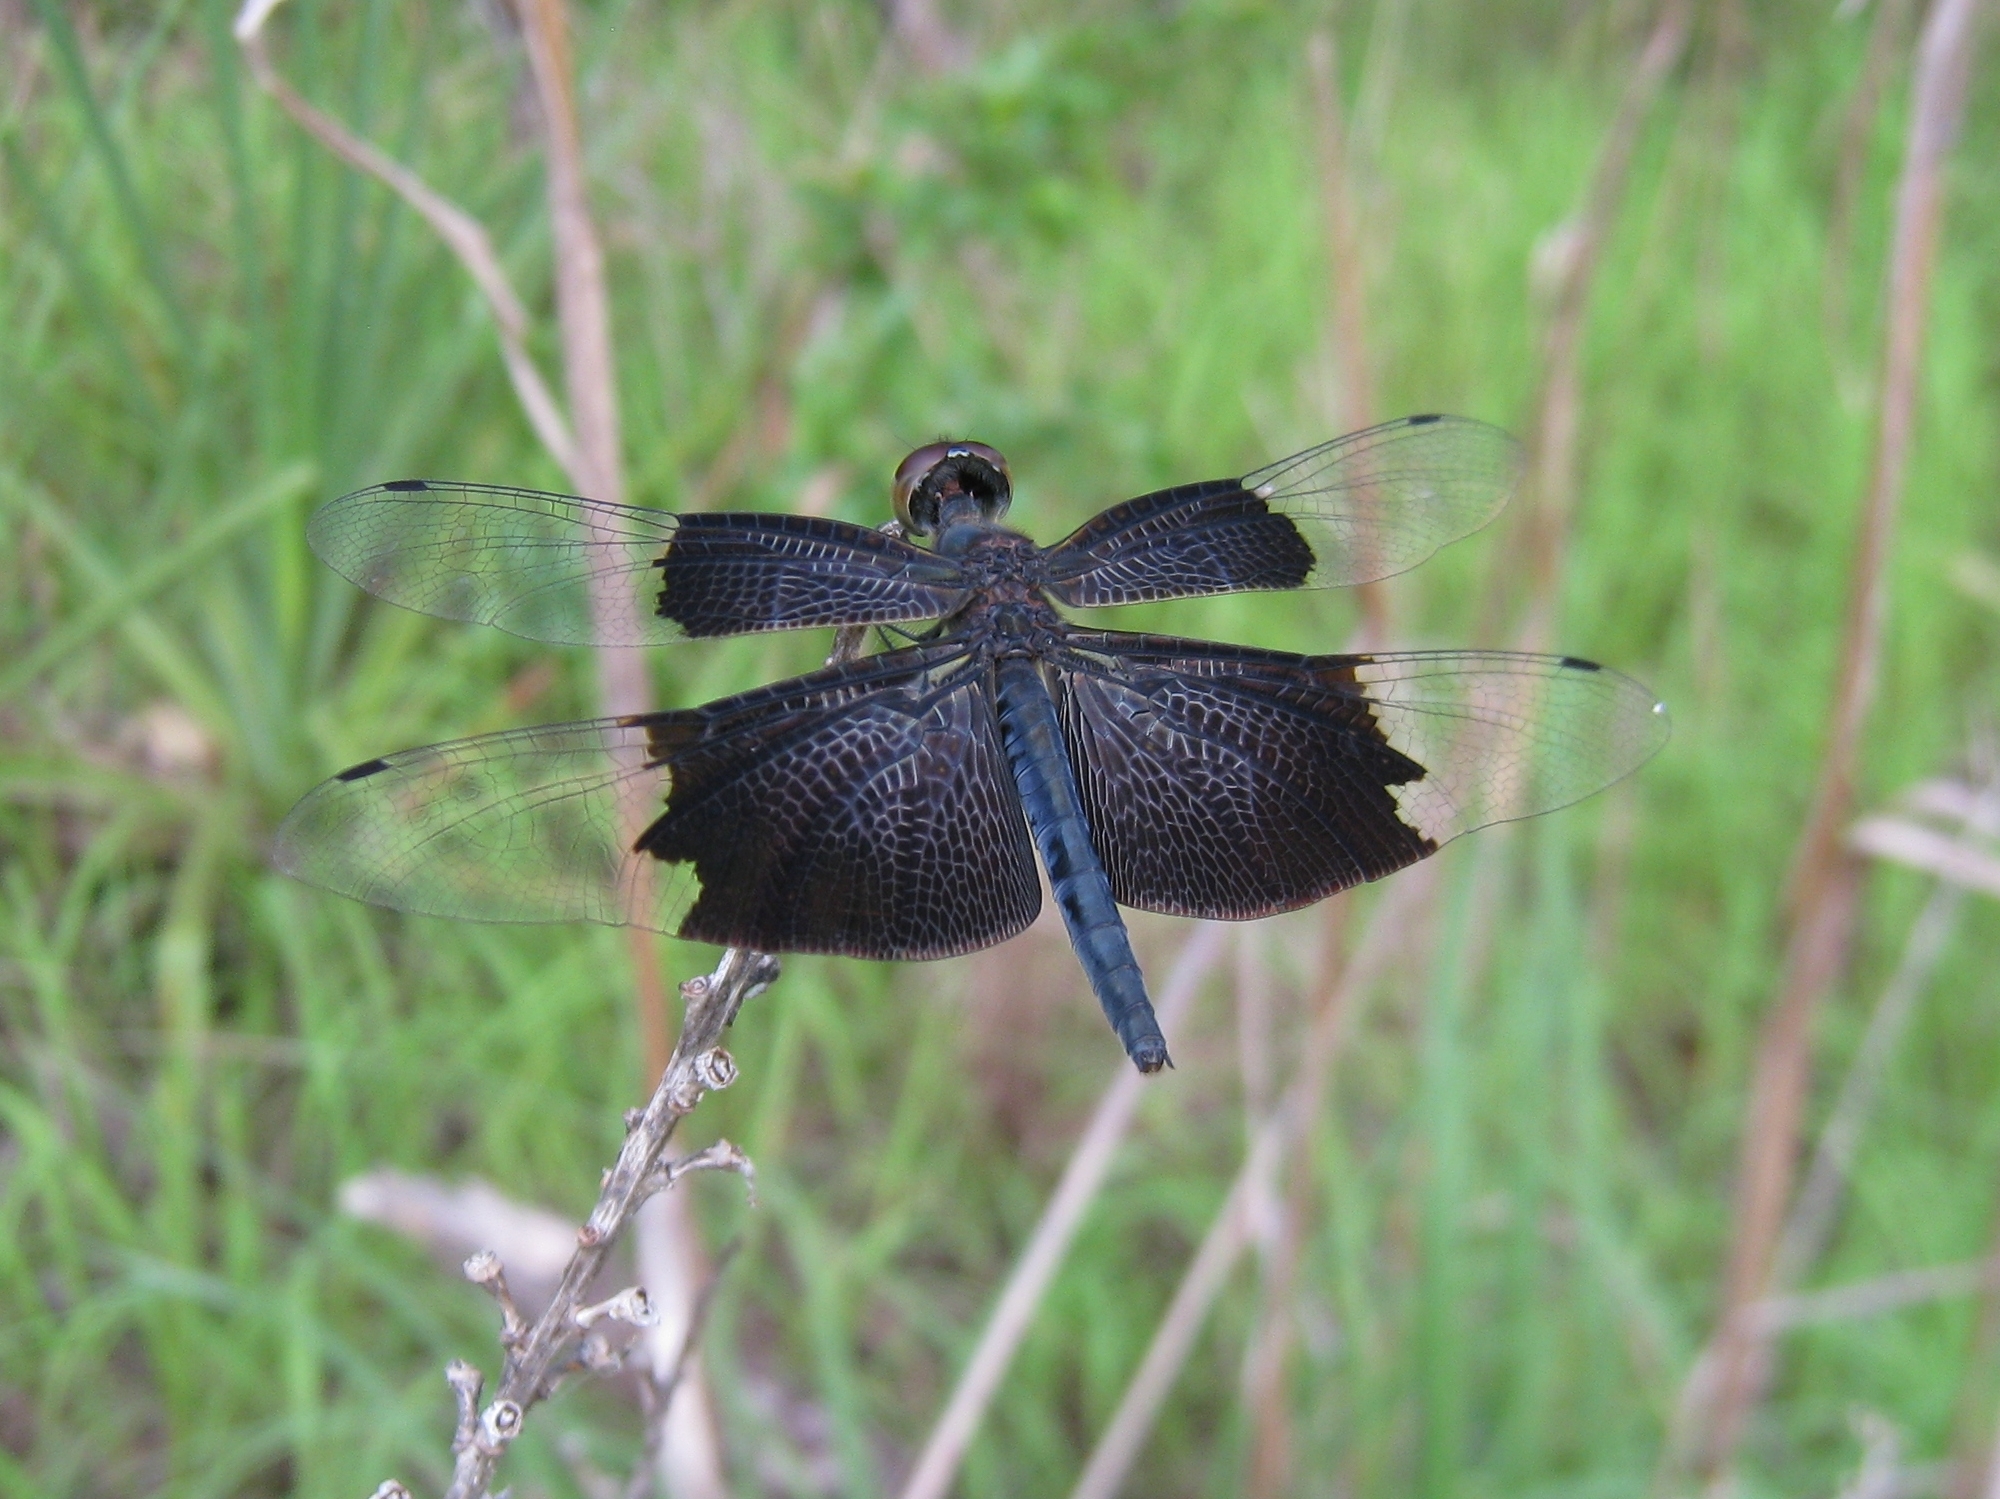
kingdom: Animalia
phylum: Arthropoda
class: Insecta
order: Odonata
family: Libellulidae
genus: Rhyothemis
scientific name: Rhyothemis braganza
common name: Iridescent flutterer
